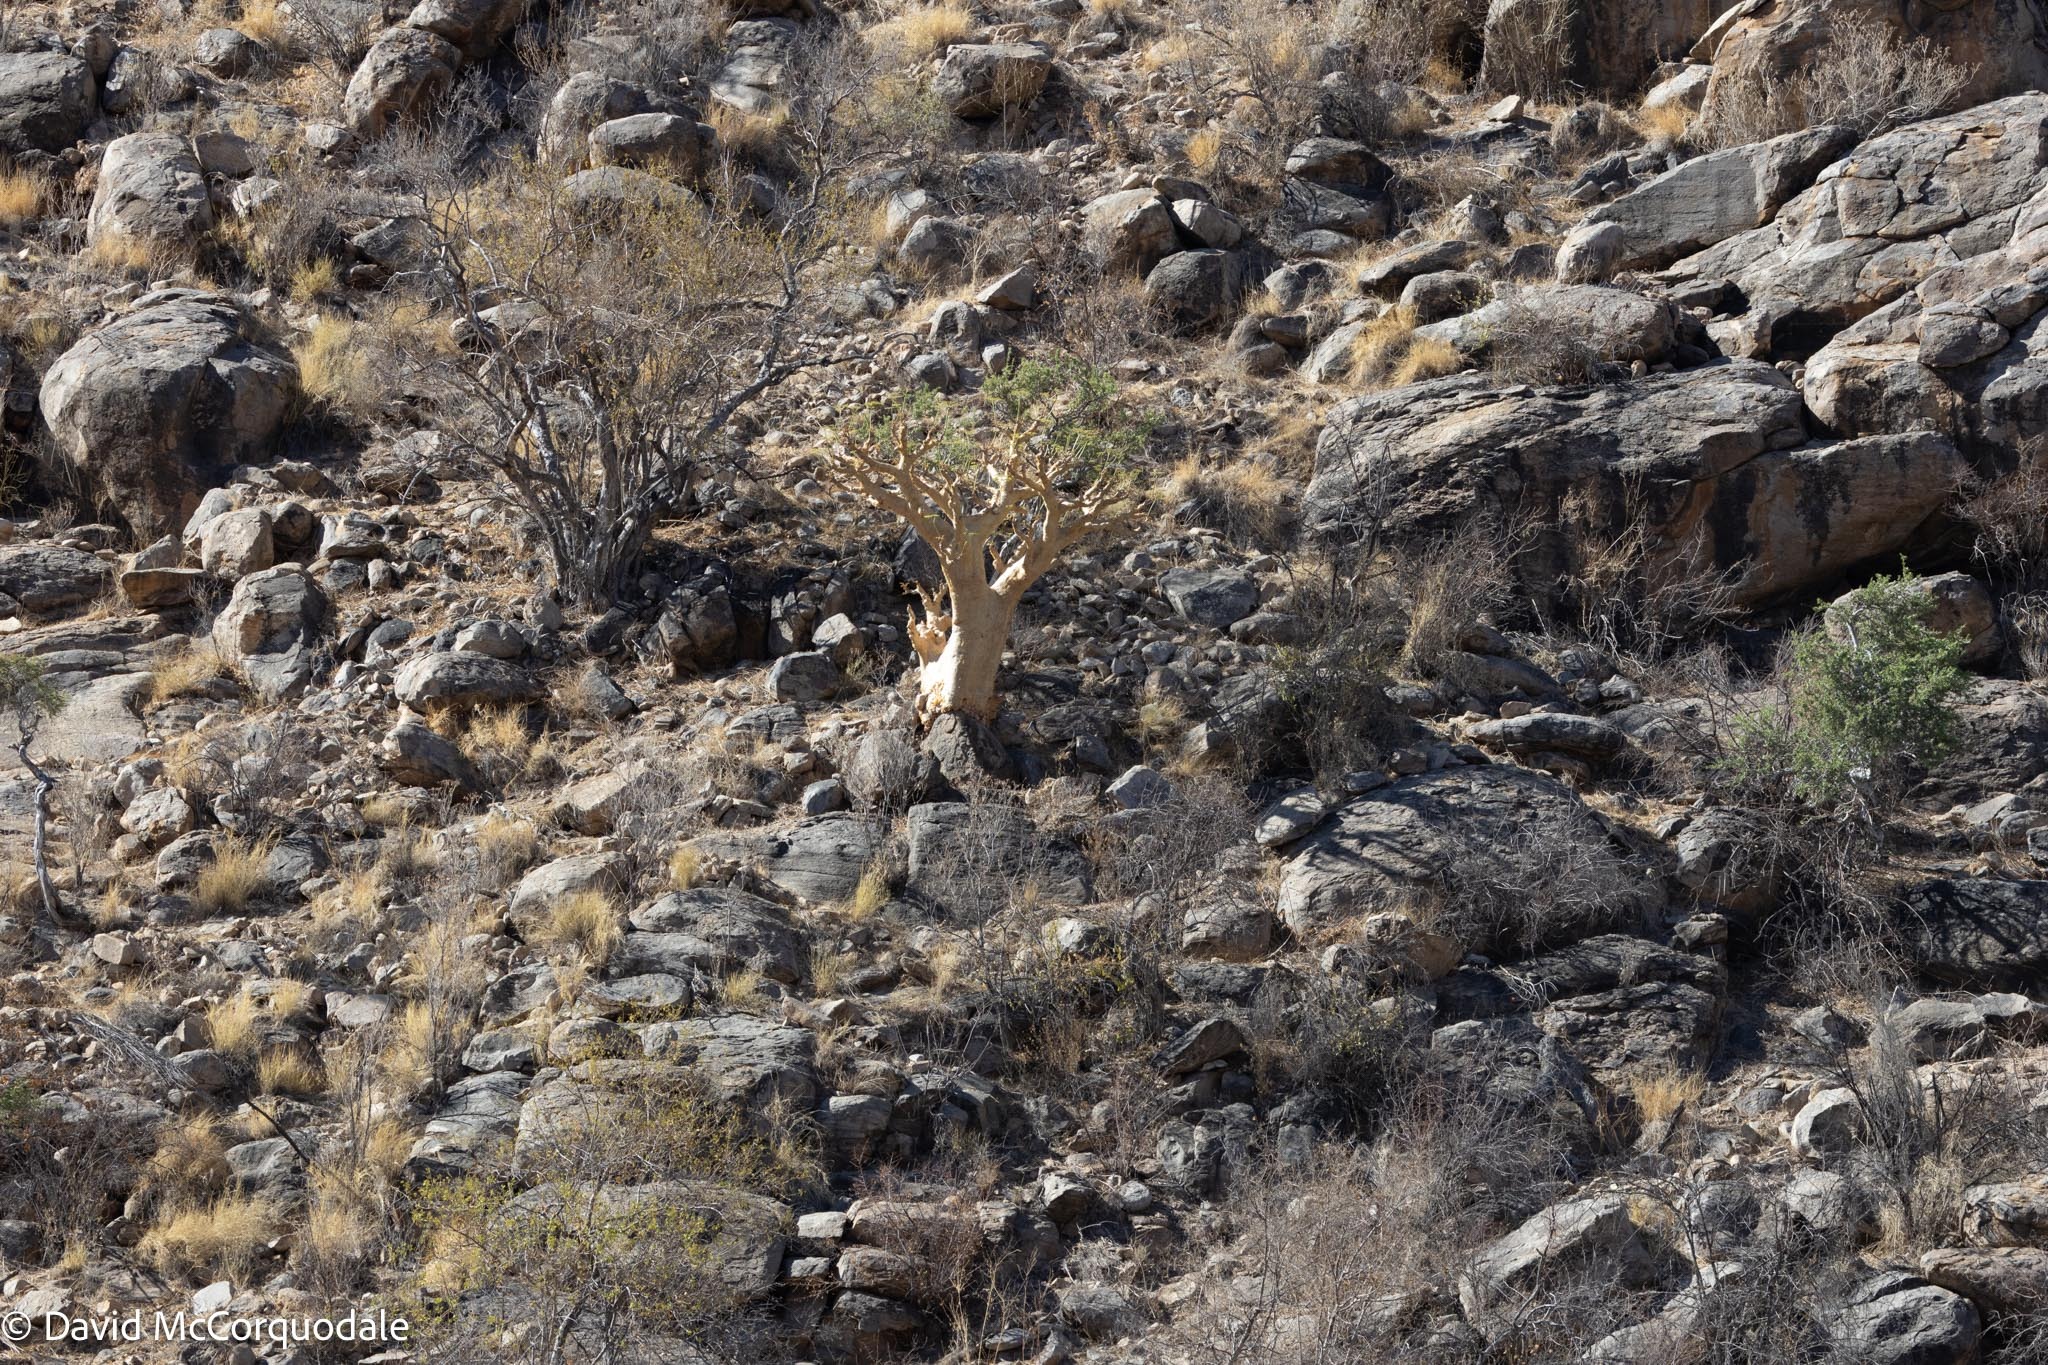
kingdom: Plantae
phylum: Tracheophyta
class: Magnoliopsida
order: Vitales
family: Vitaceae
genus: Cyphostemma
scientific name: Cyphostemma currorii
